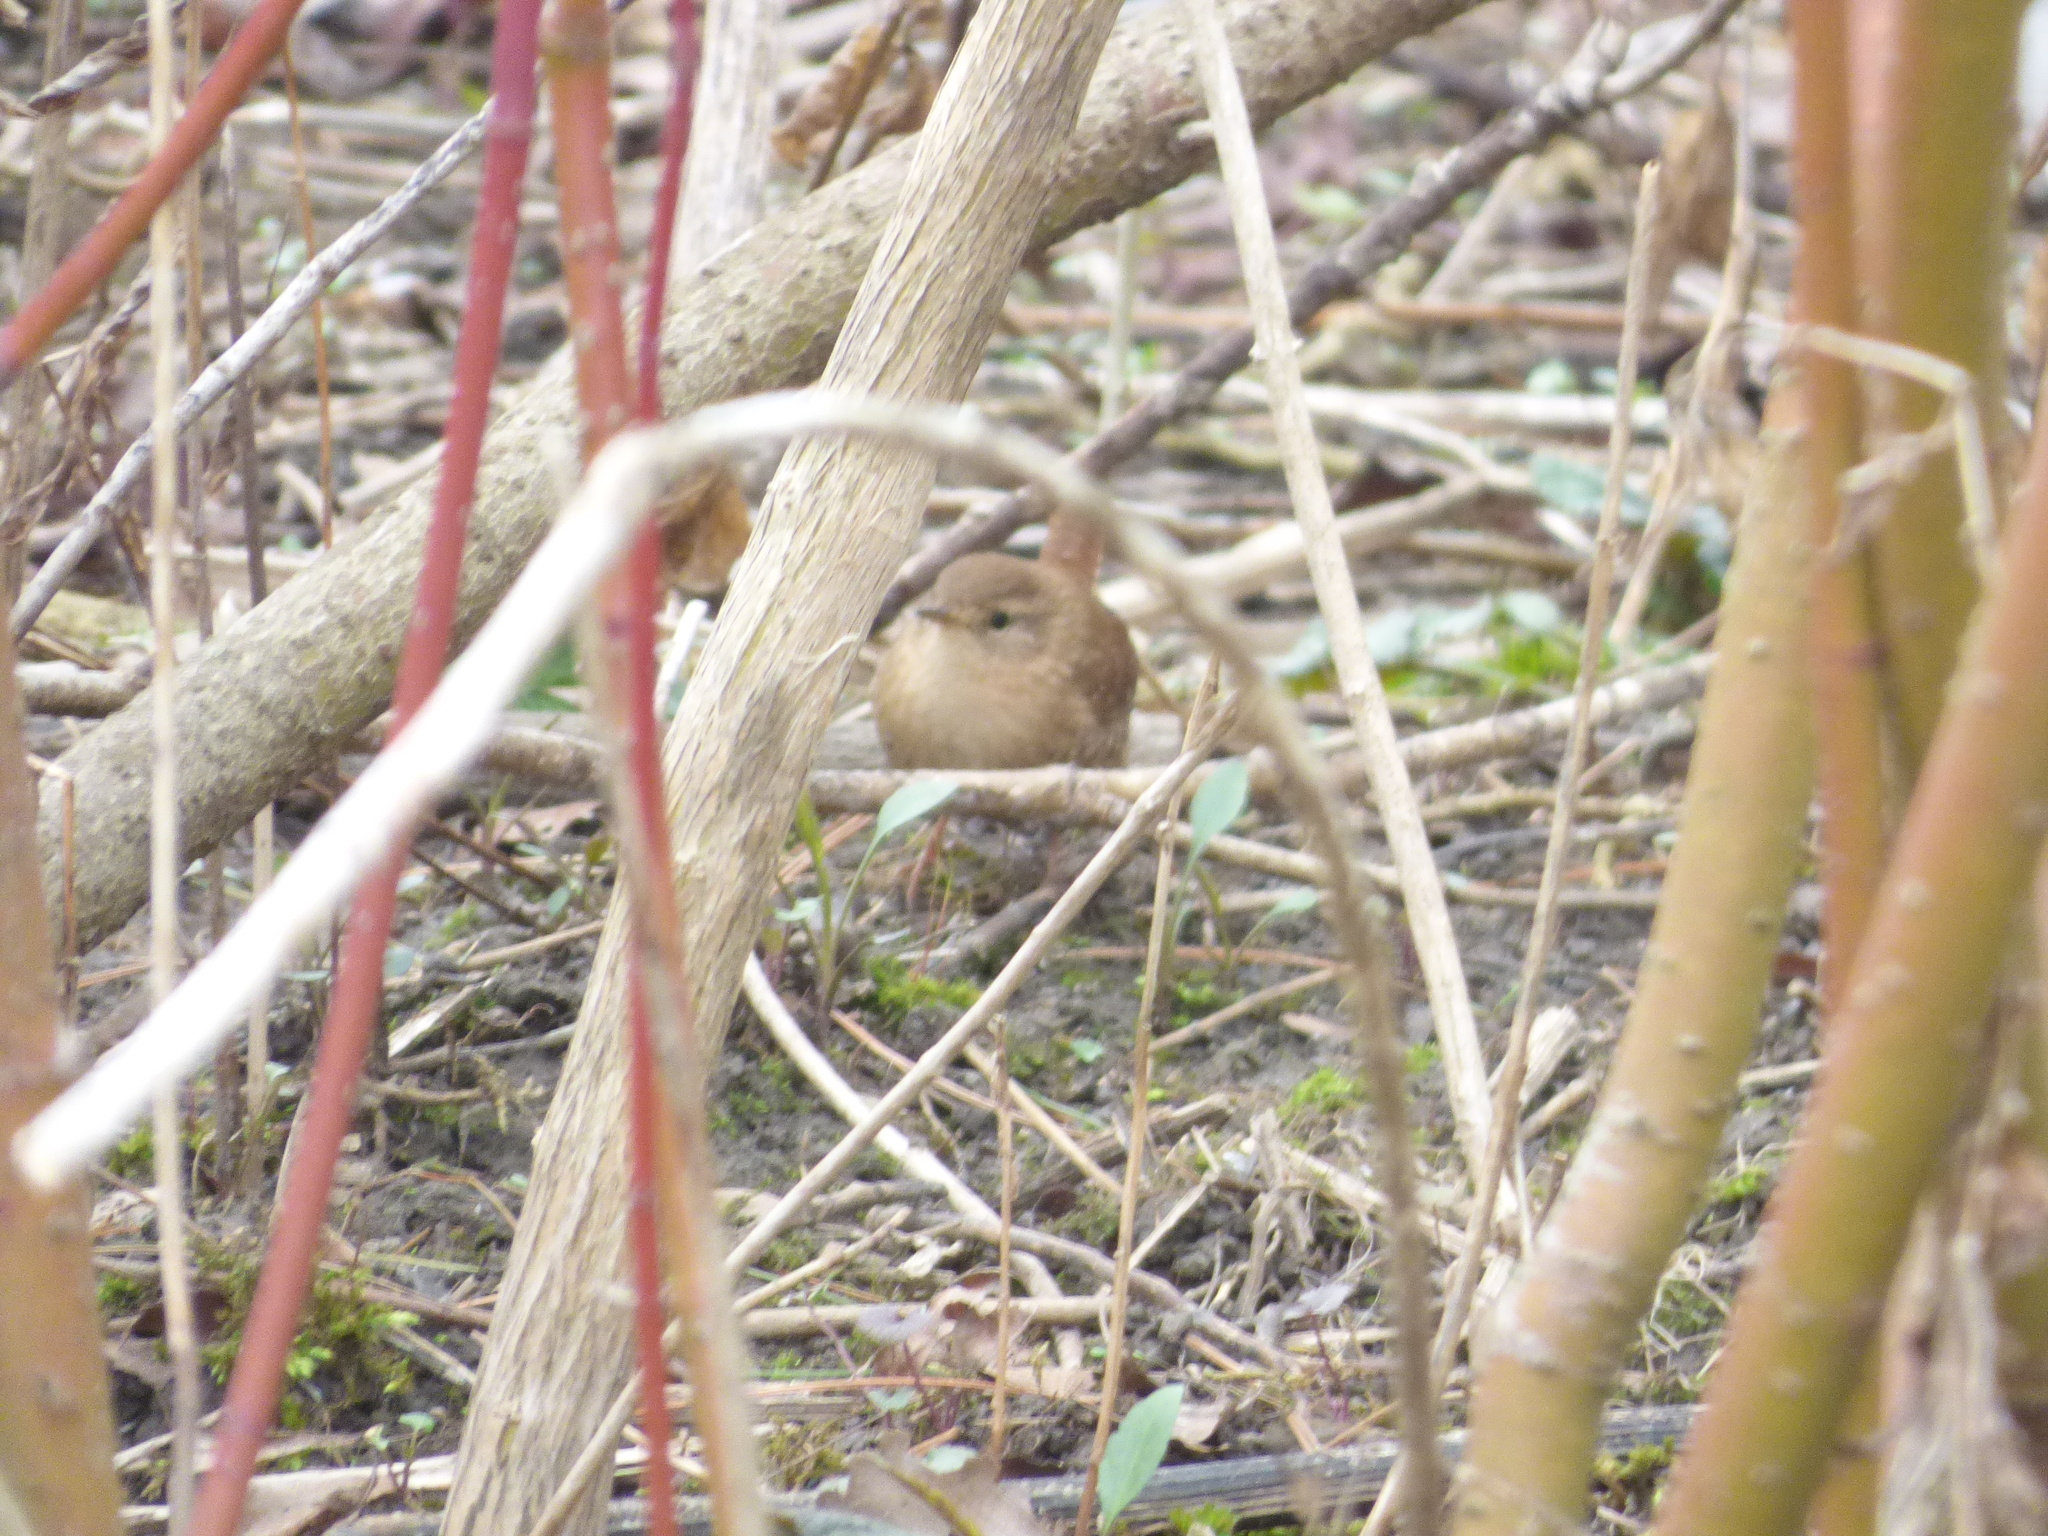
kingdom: Animalia
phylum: Chordata
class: Aves
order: Passeriformes
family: Troglodytidae
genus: Troglodytes
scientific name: Troglodytes hiemalis
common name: Winter wren
